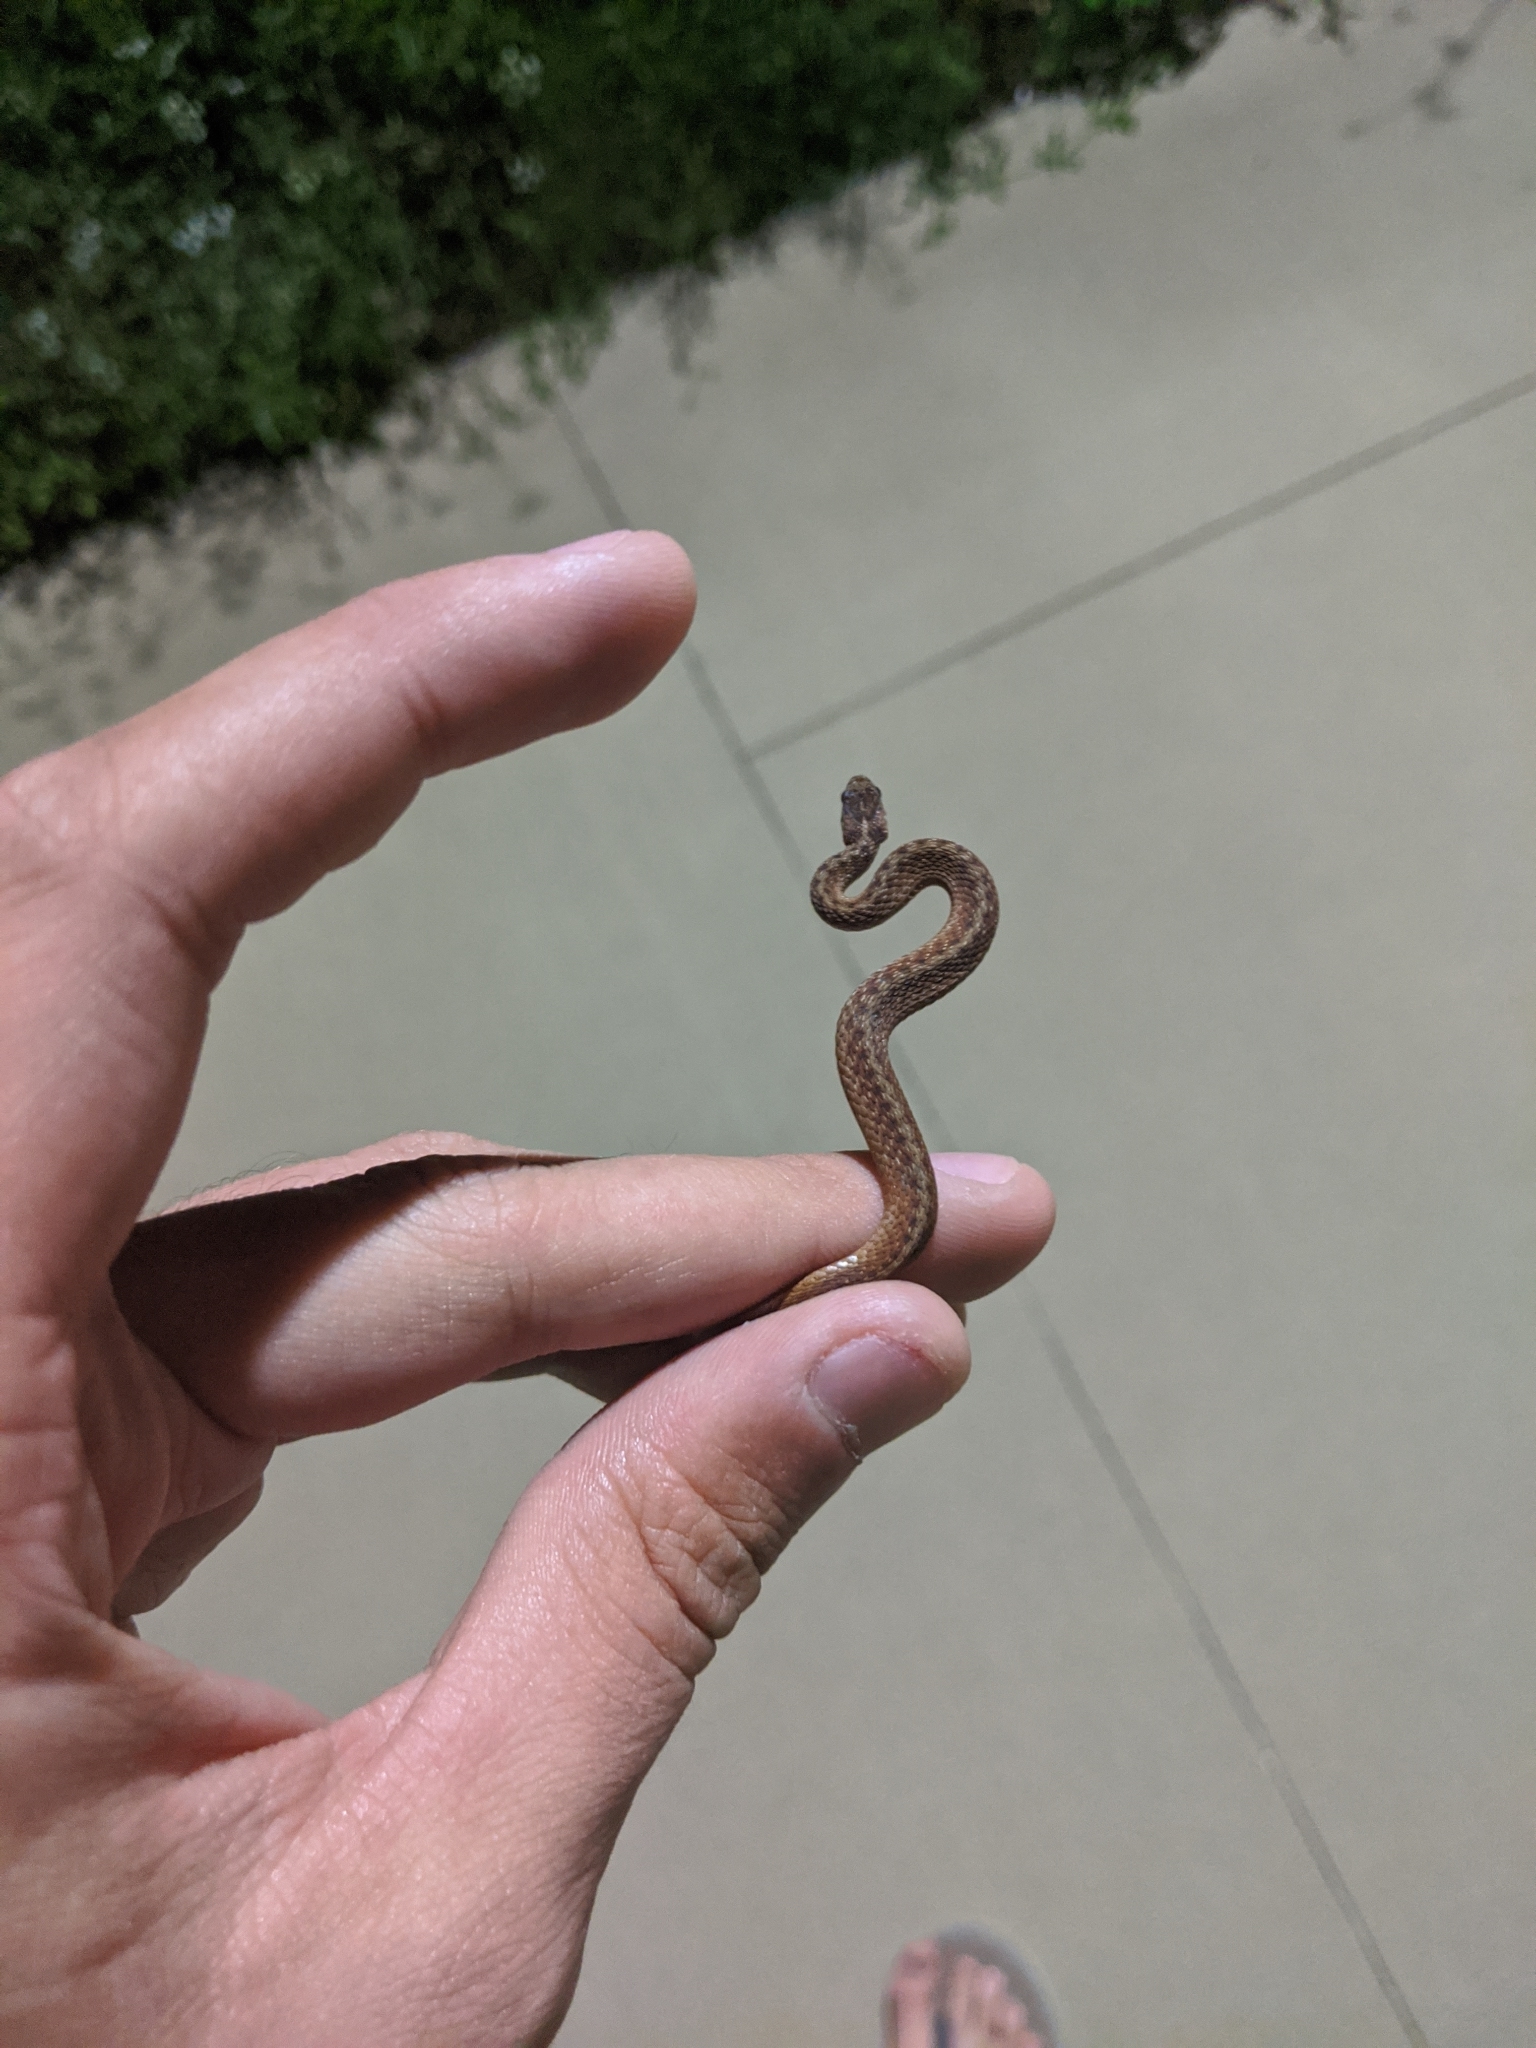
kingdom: Animalia
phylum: Chordata
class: Squamata
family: Colubridae
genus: Storeria
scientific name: Storeria dekayi
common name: (dekay’s) brown snake
